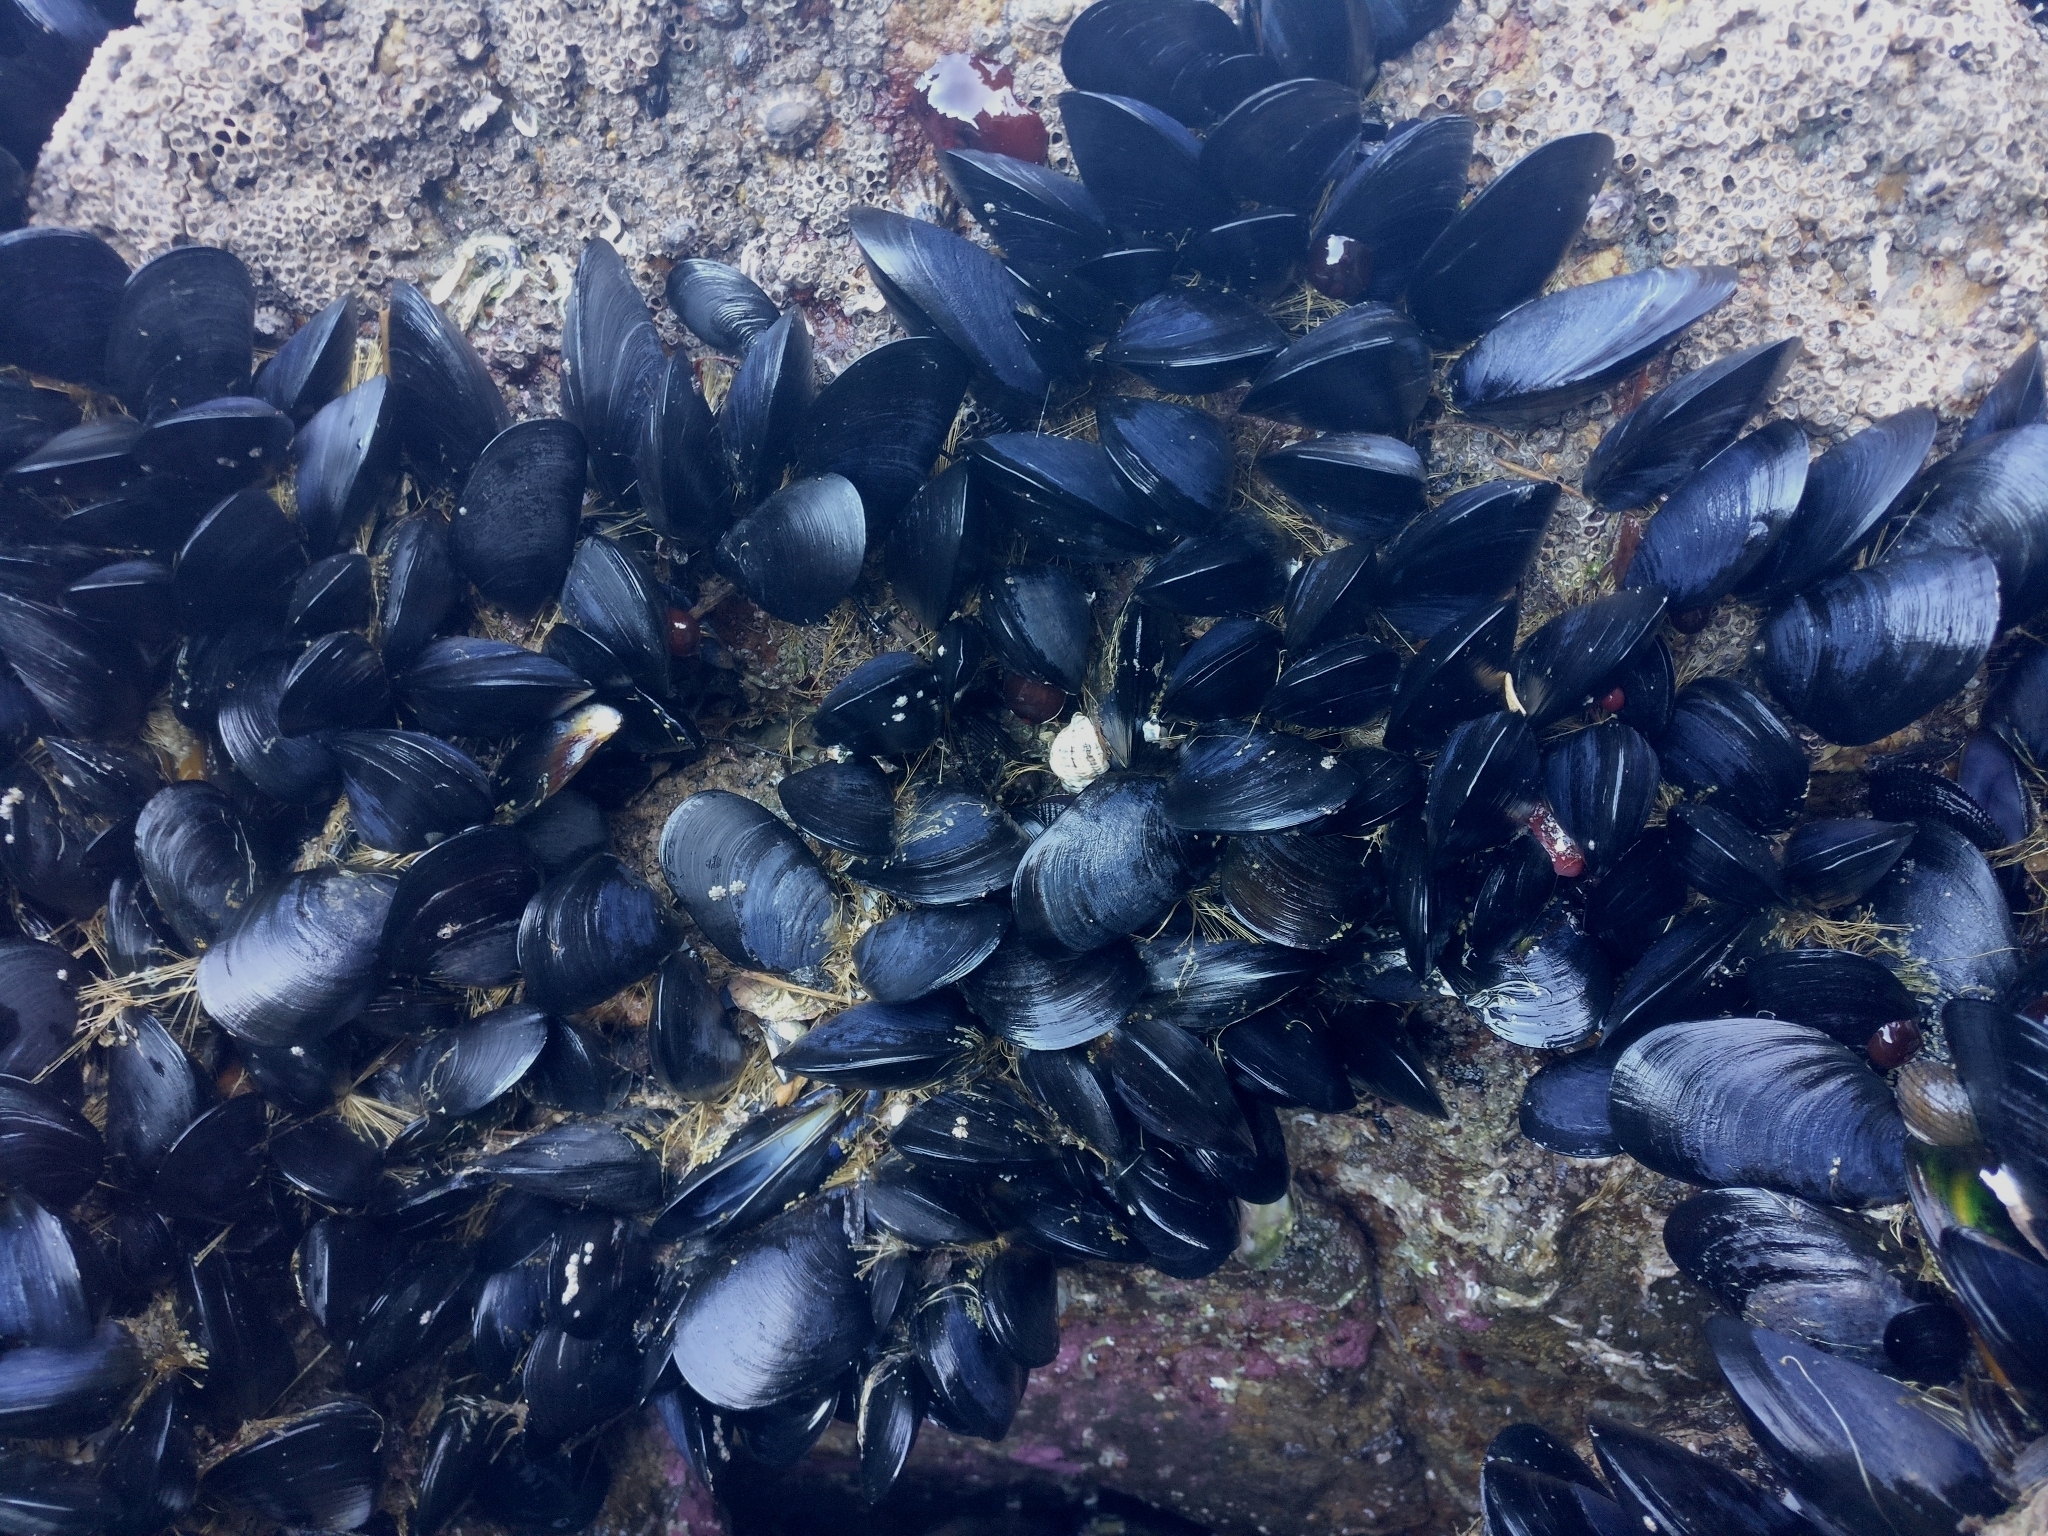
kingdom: Animalia
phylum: Mollusca
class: Bivalvia
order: Mytilida
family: Mytilidae
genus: Mytilus
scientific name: Mytilus planulatus
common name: Australian mussel
